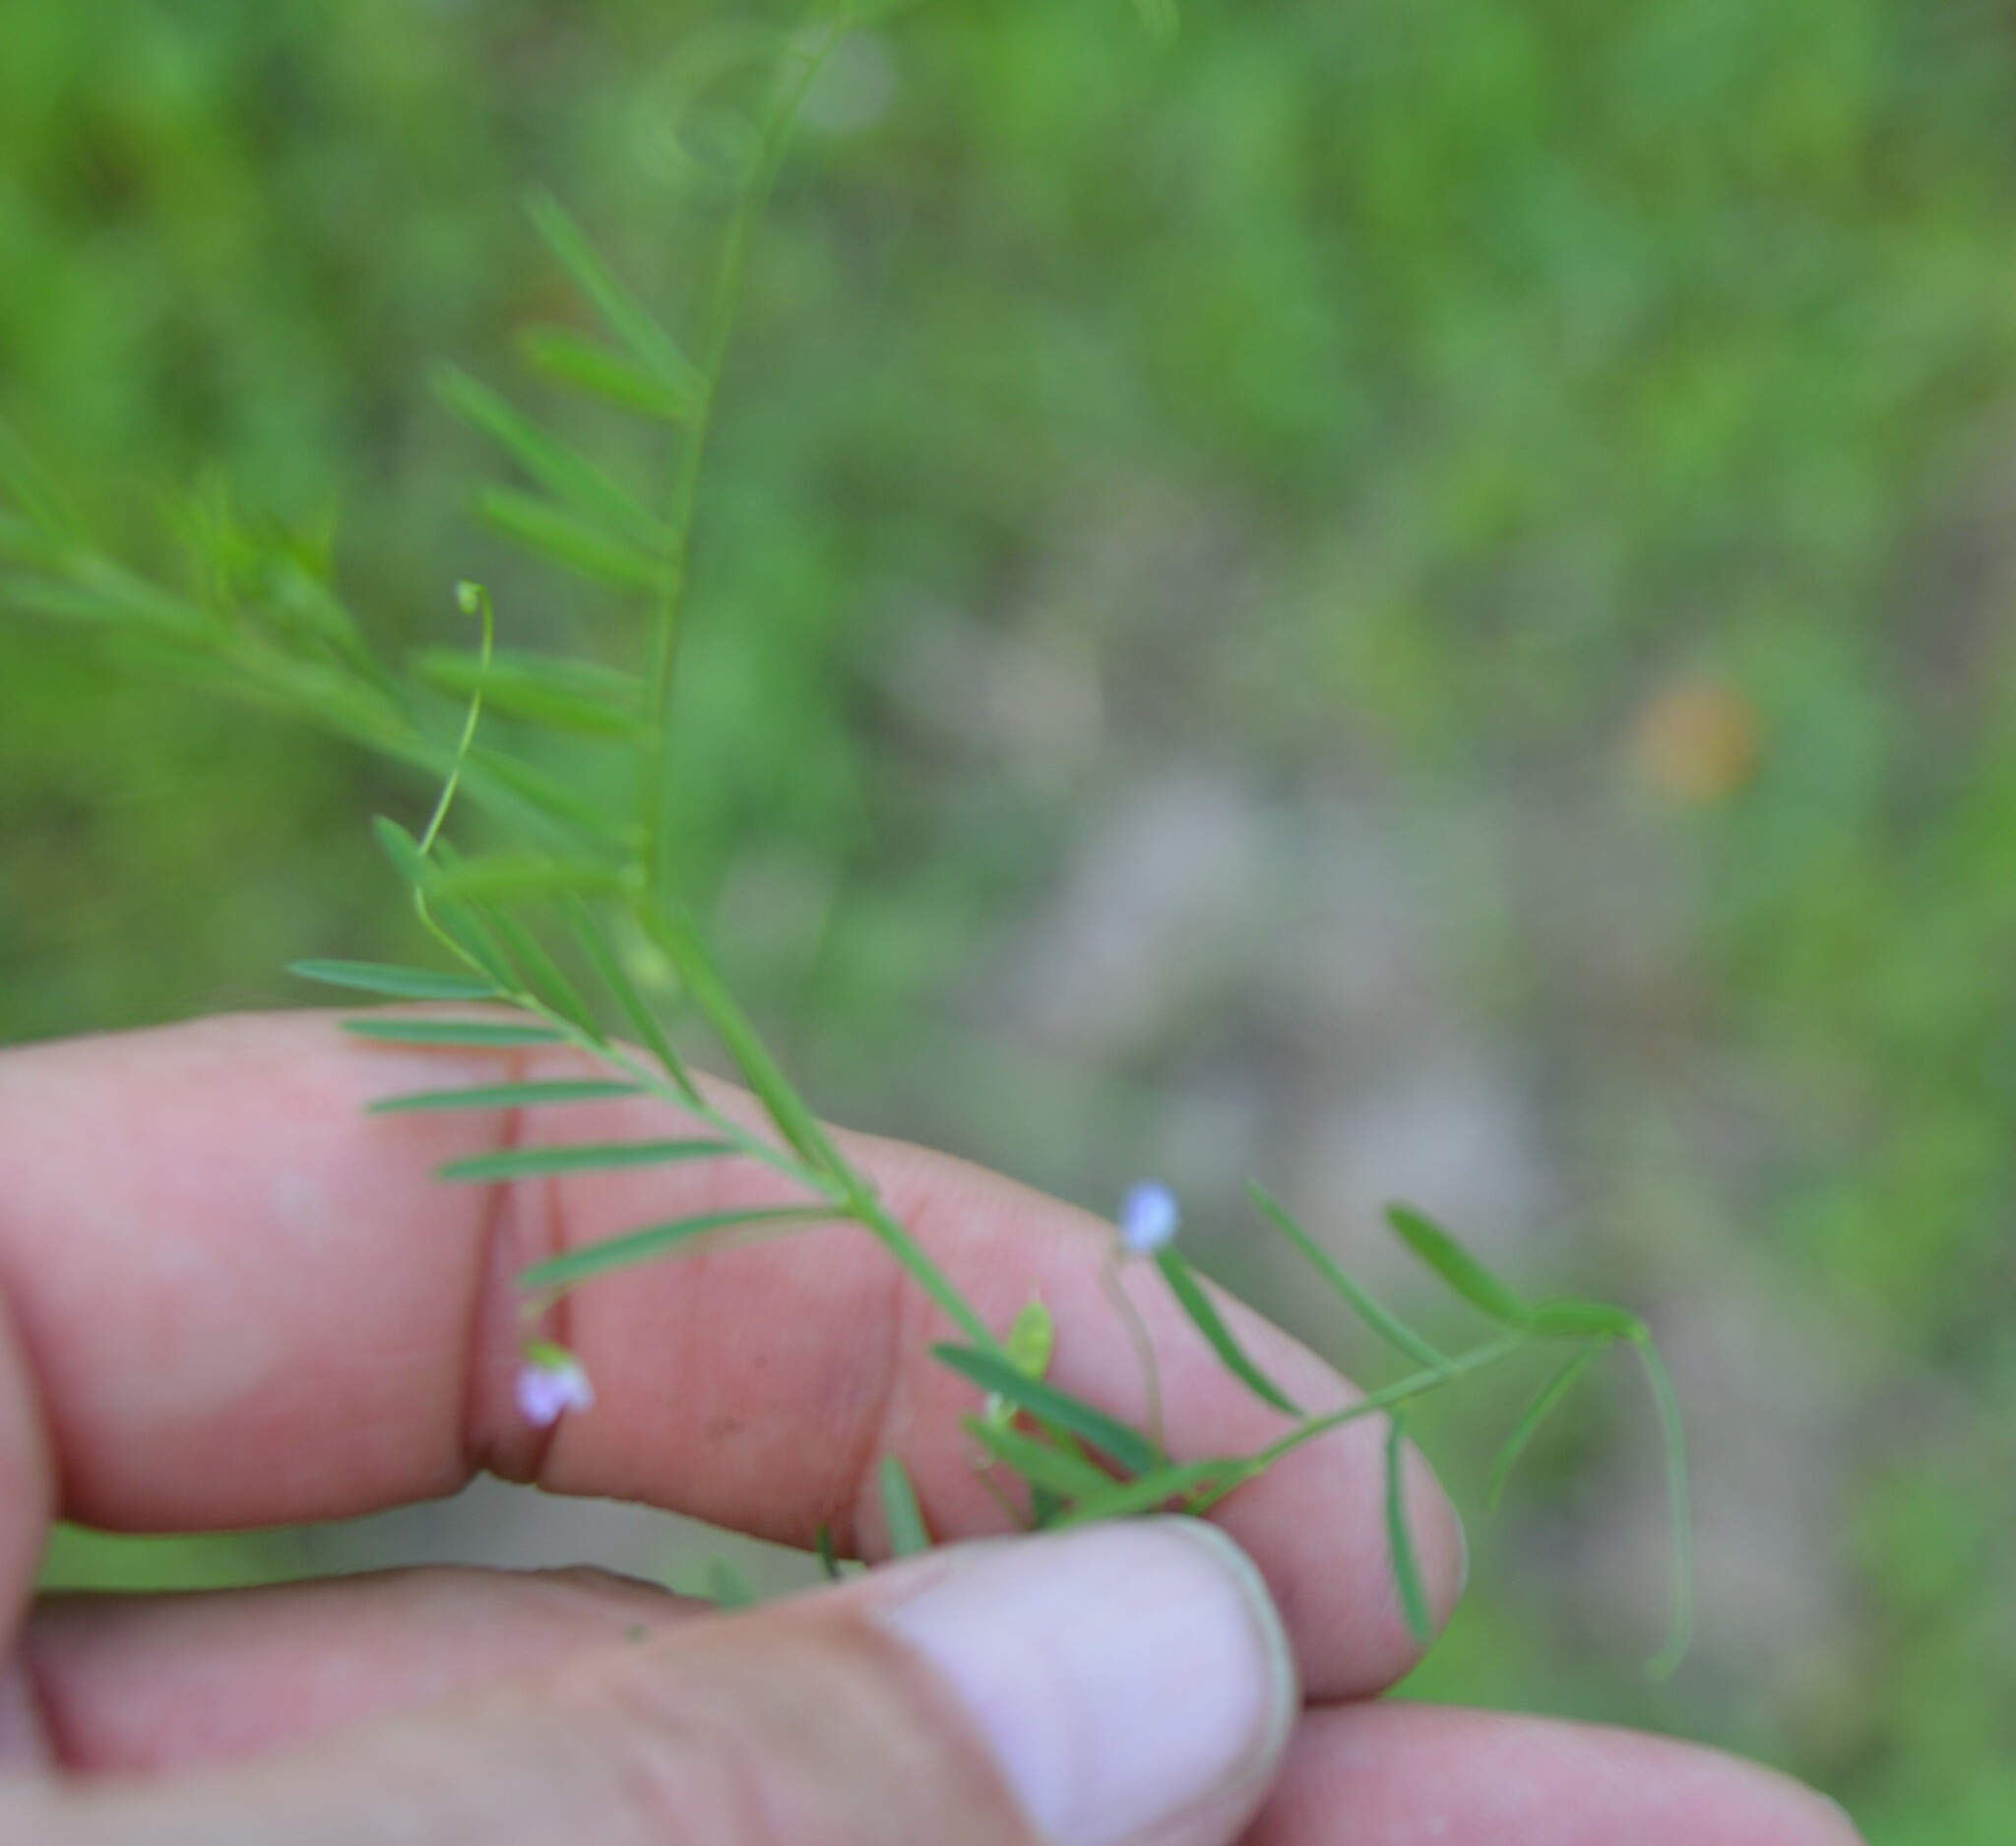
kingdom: Plantae
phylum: Tracheophyta
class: Magnoliopsida
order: Fabales
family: Fabaceae
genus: Vicia
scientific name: Vicia tetrasperma
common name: Smooth tare
